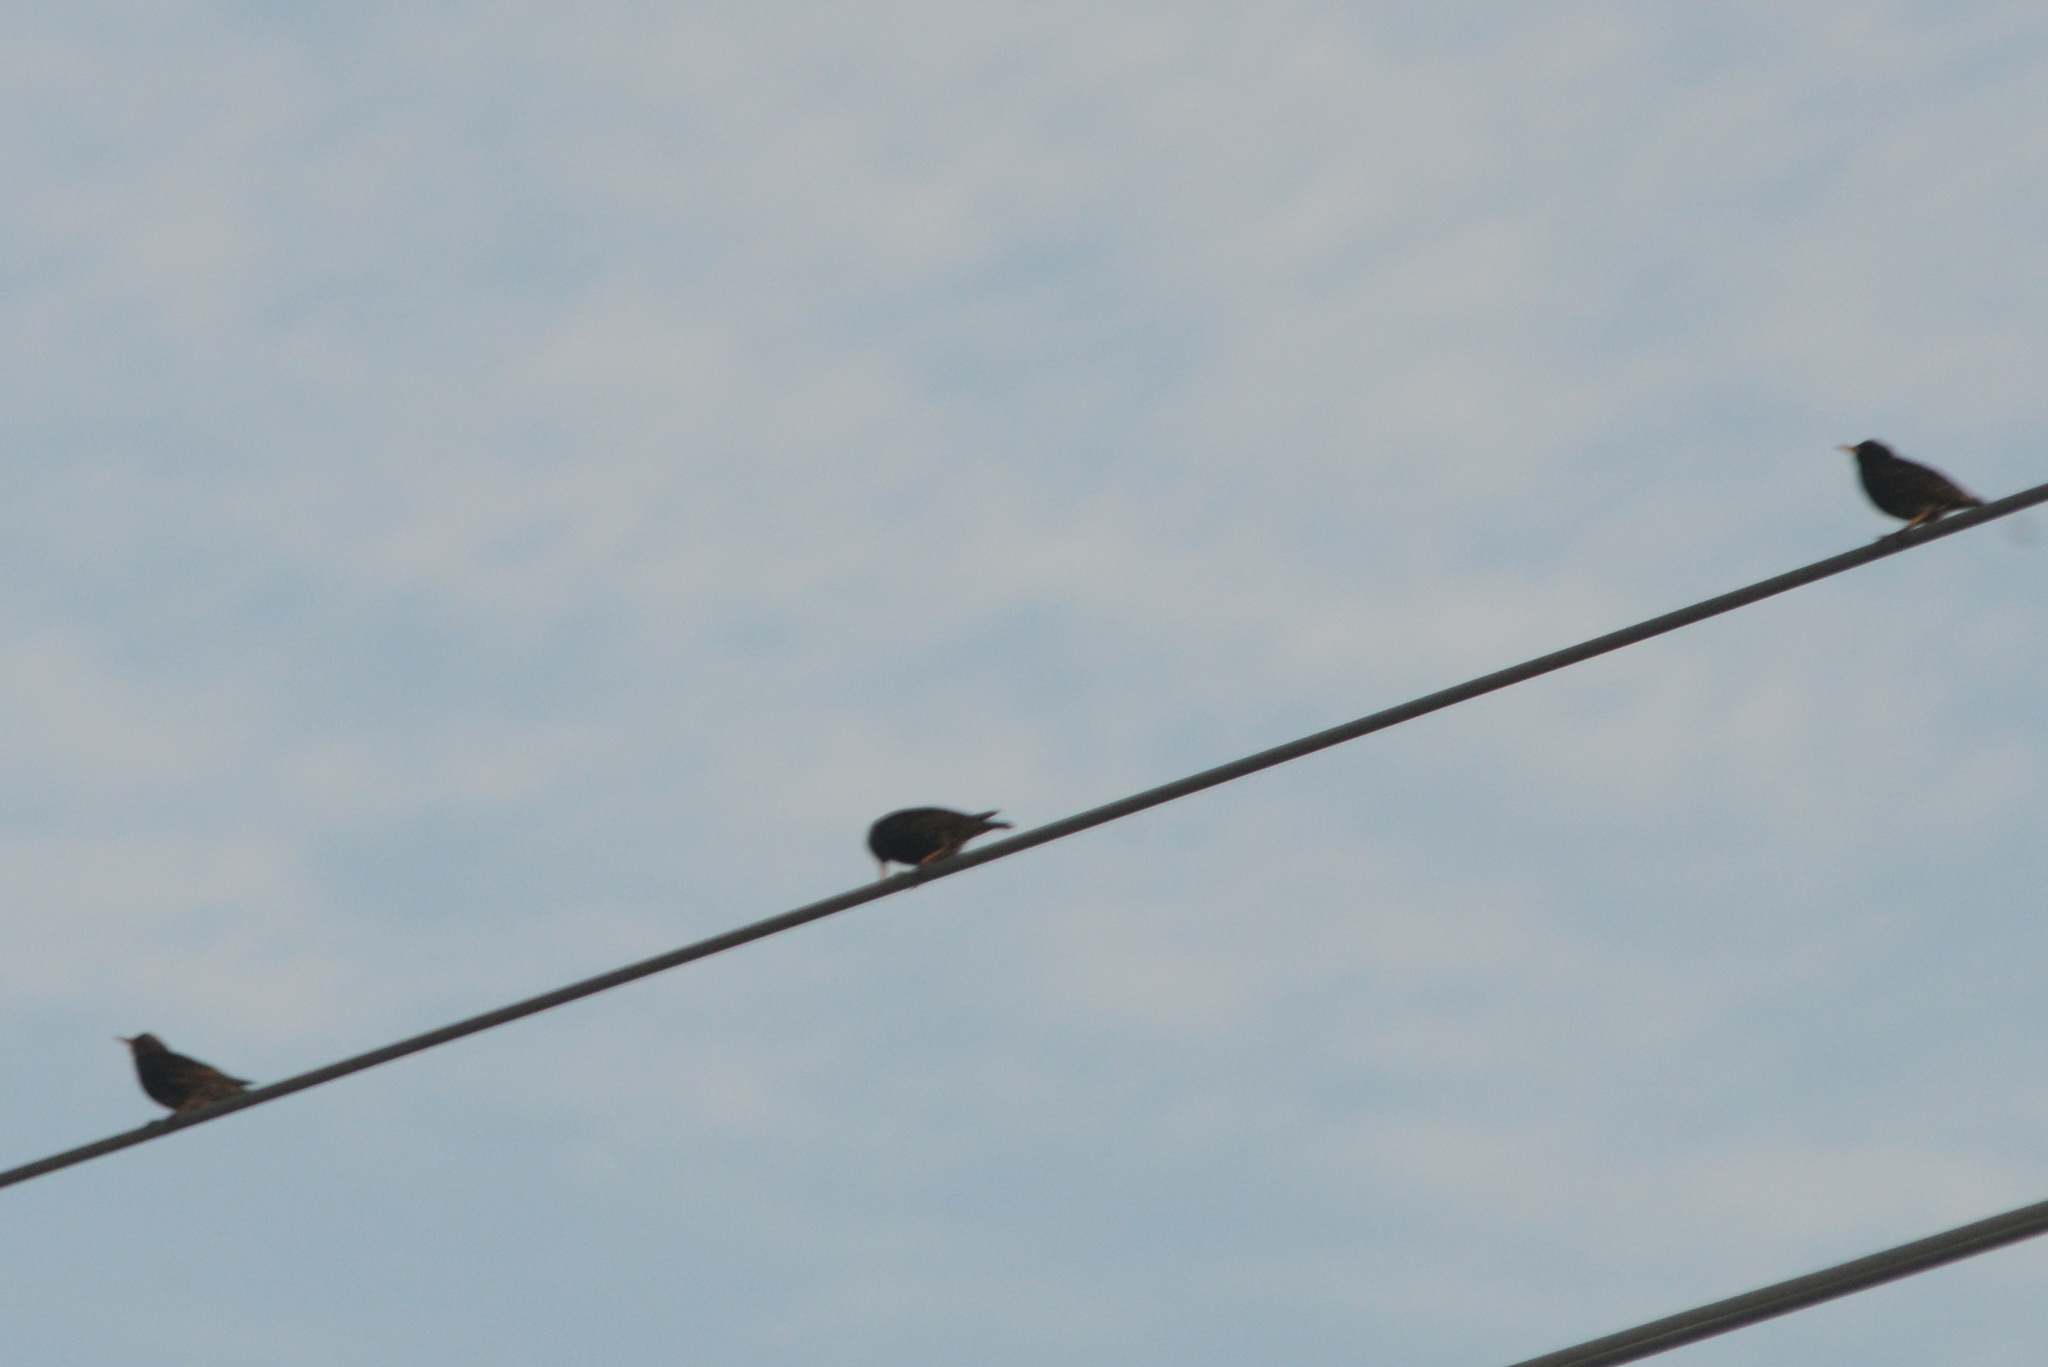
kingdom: Animalia
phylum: Chordata
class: Aves
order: Passeriformes
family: Sturnidae
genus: Sturnus
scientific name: Sturnus vulgaris
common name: Common starling
